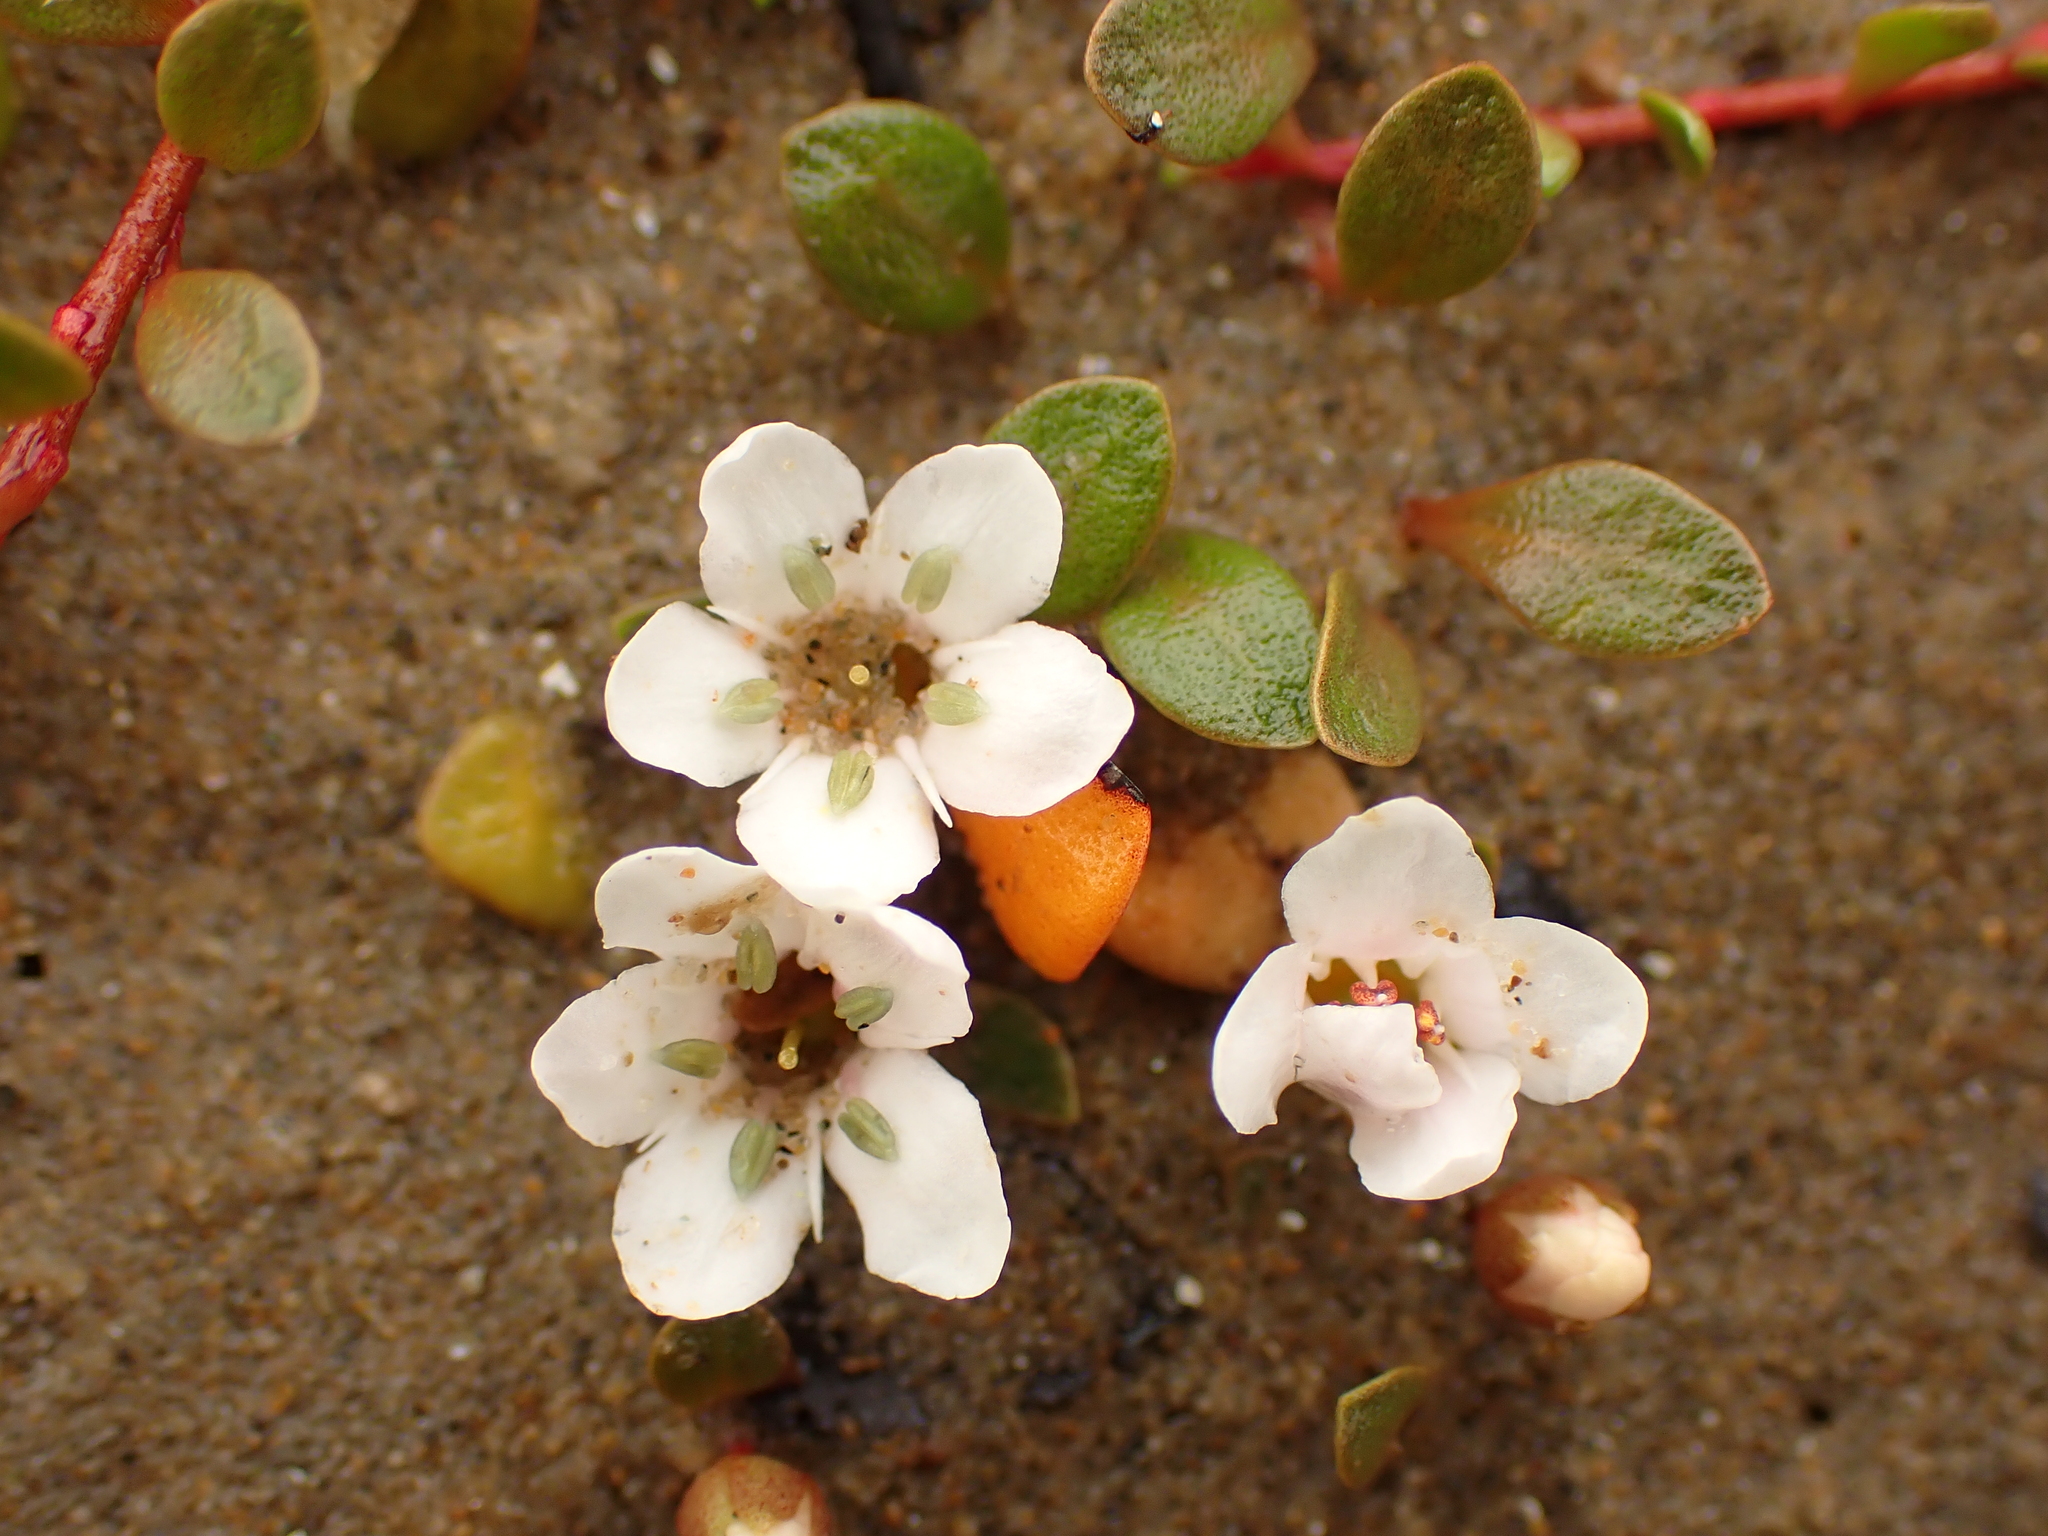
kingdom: Plantae
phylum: Tracheophyta
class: Magnoliopsida
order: Ericales
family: Primulaceae
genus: Samolus
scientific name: Samolus repens
